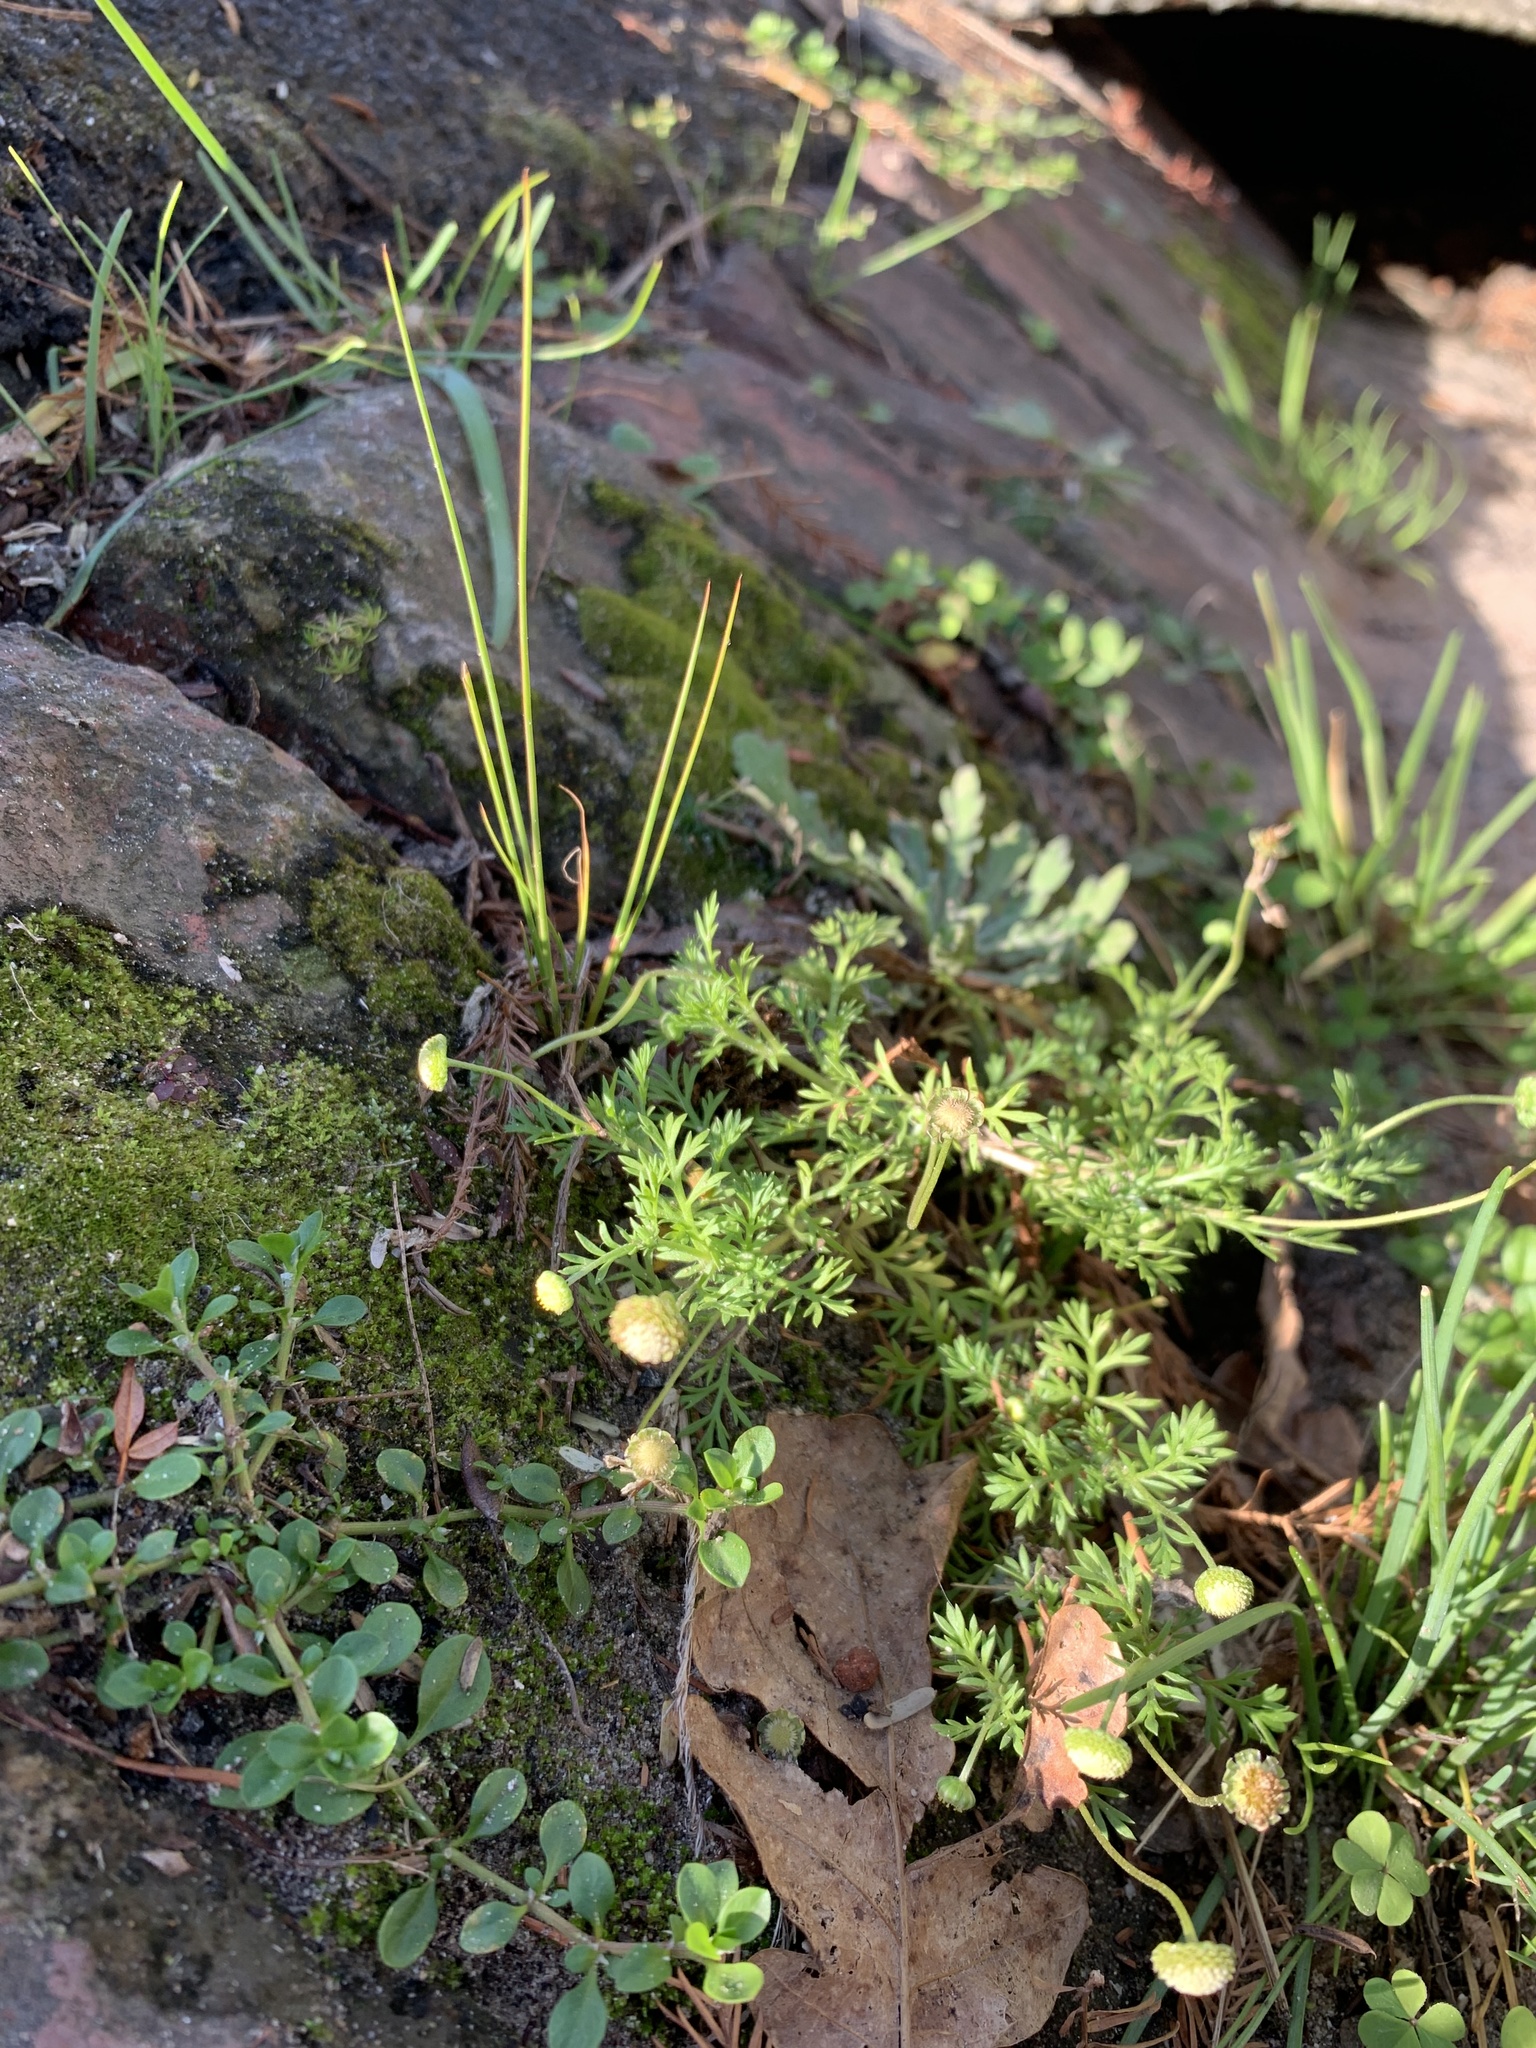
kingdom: Plantae
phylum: Tracheophyta
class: Magnoliopsida
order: Asterales
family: Asteraceae
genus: Cotula
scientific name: Cotula australis
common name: Australian waterbuttons
